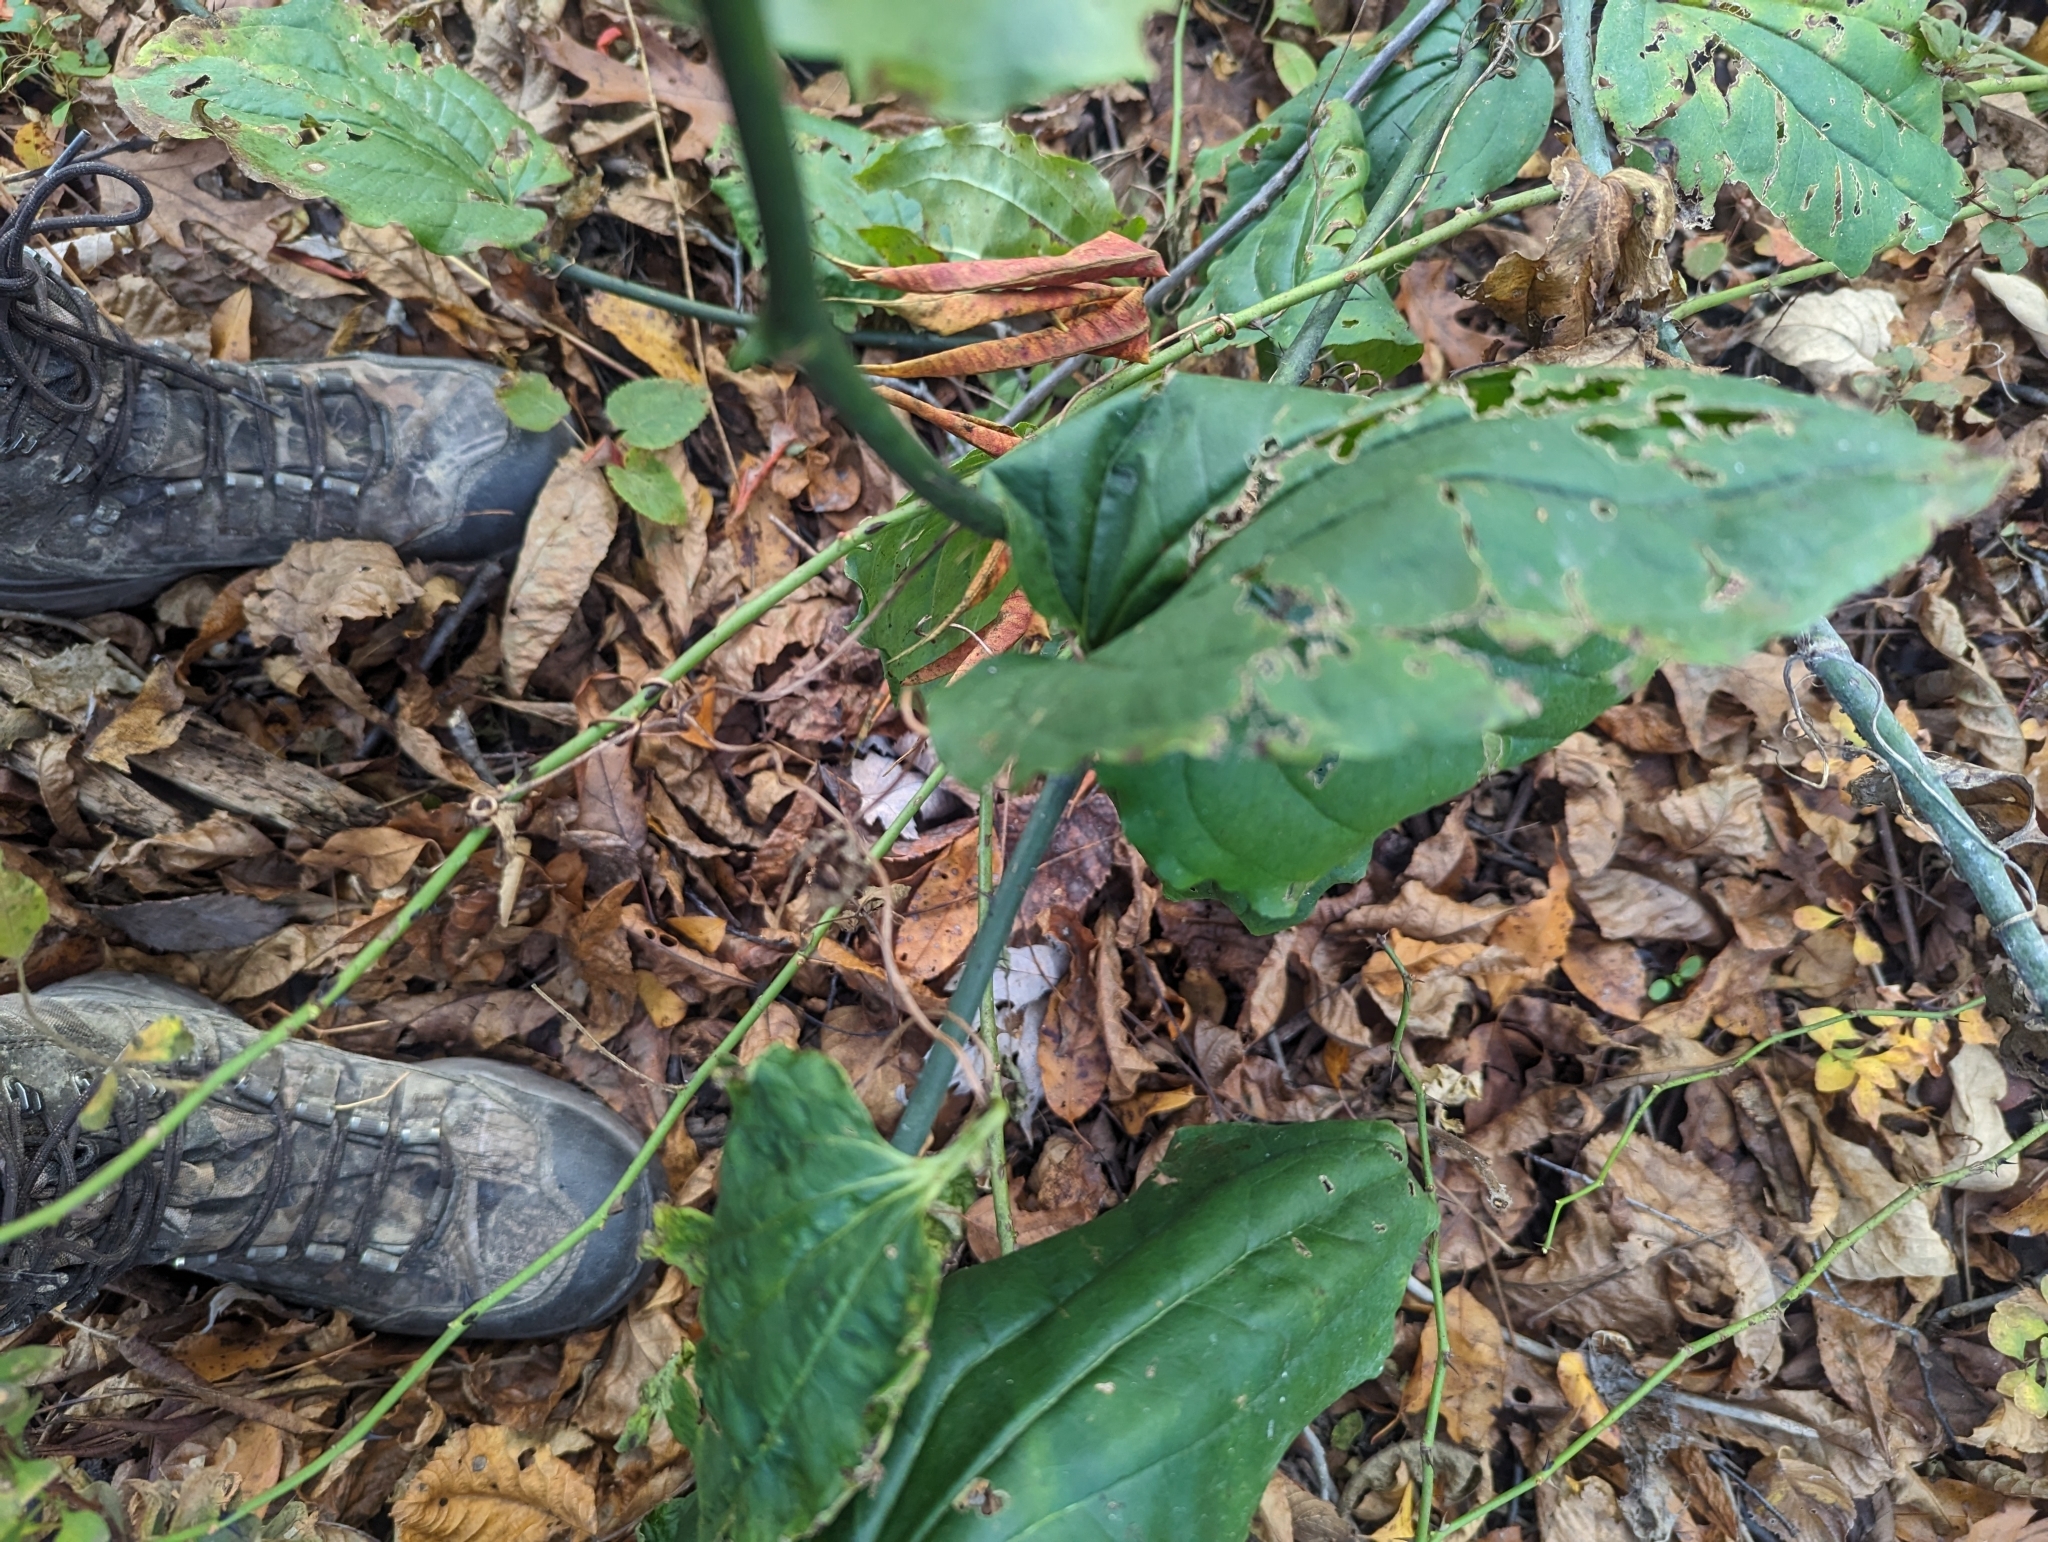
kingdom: Plantae
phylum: Tracheophyta
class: Liliopsida
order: Liliales
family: Smilacaceae
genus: Smilax
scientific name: Smilax tamnoides
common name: Hellfetter
